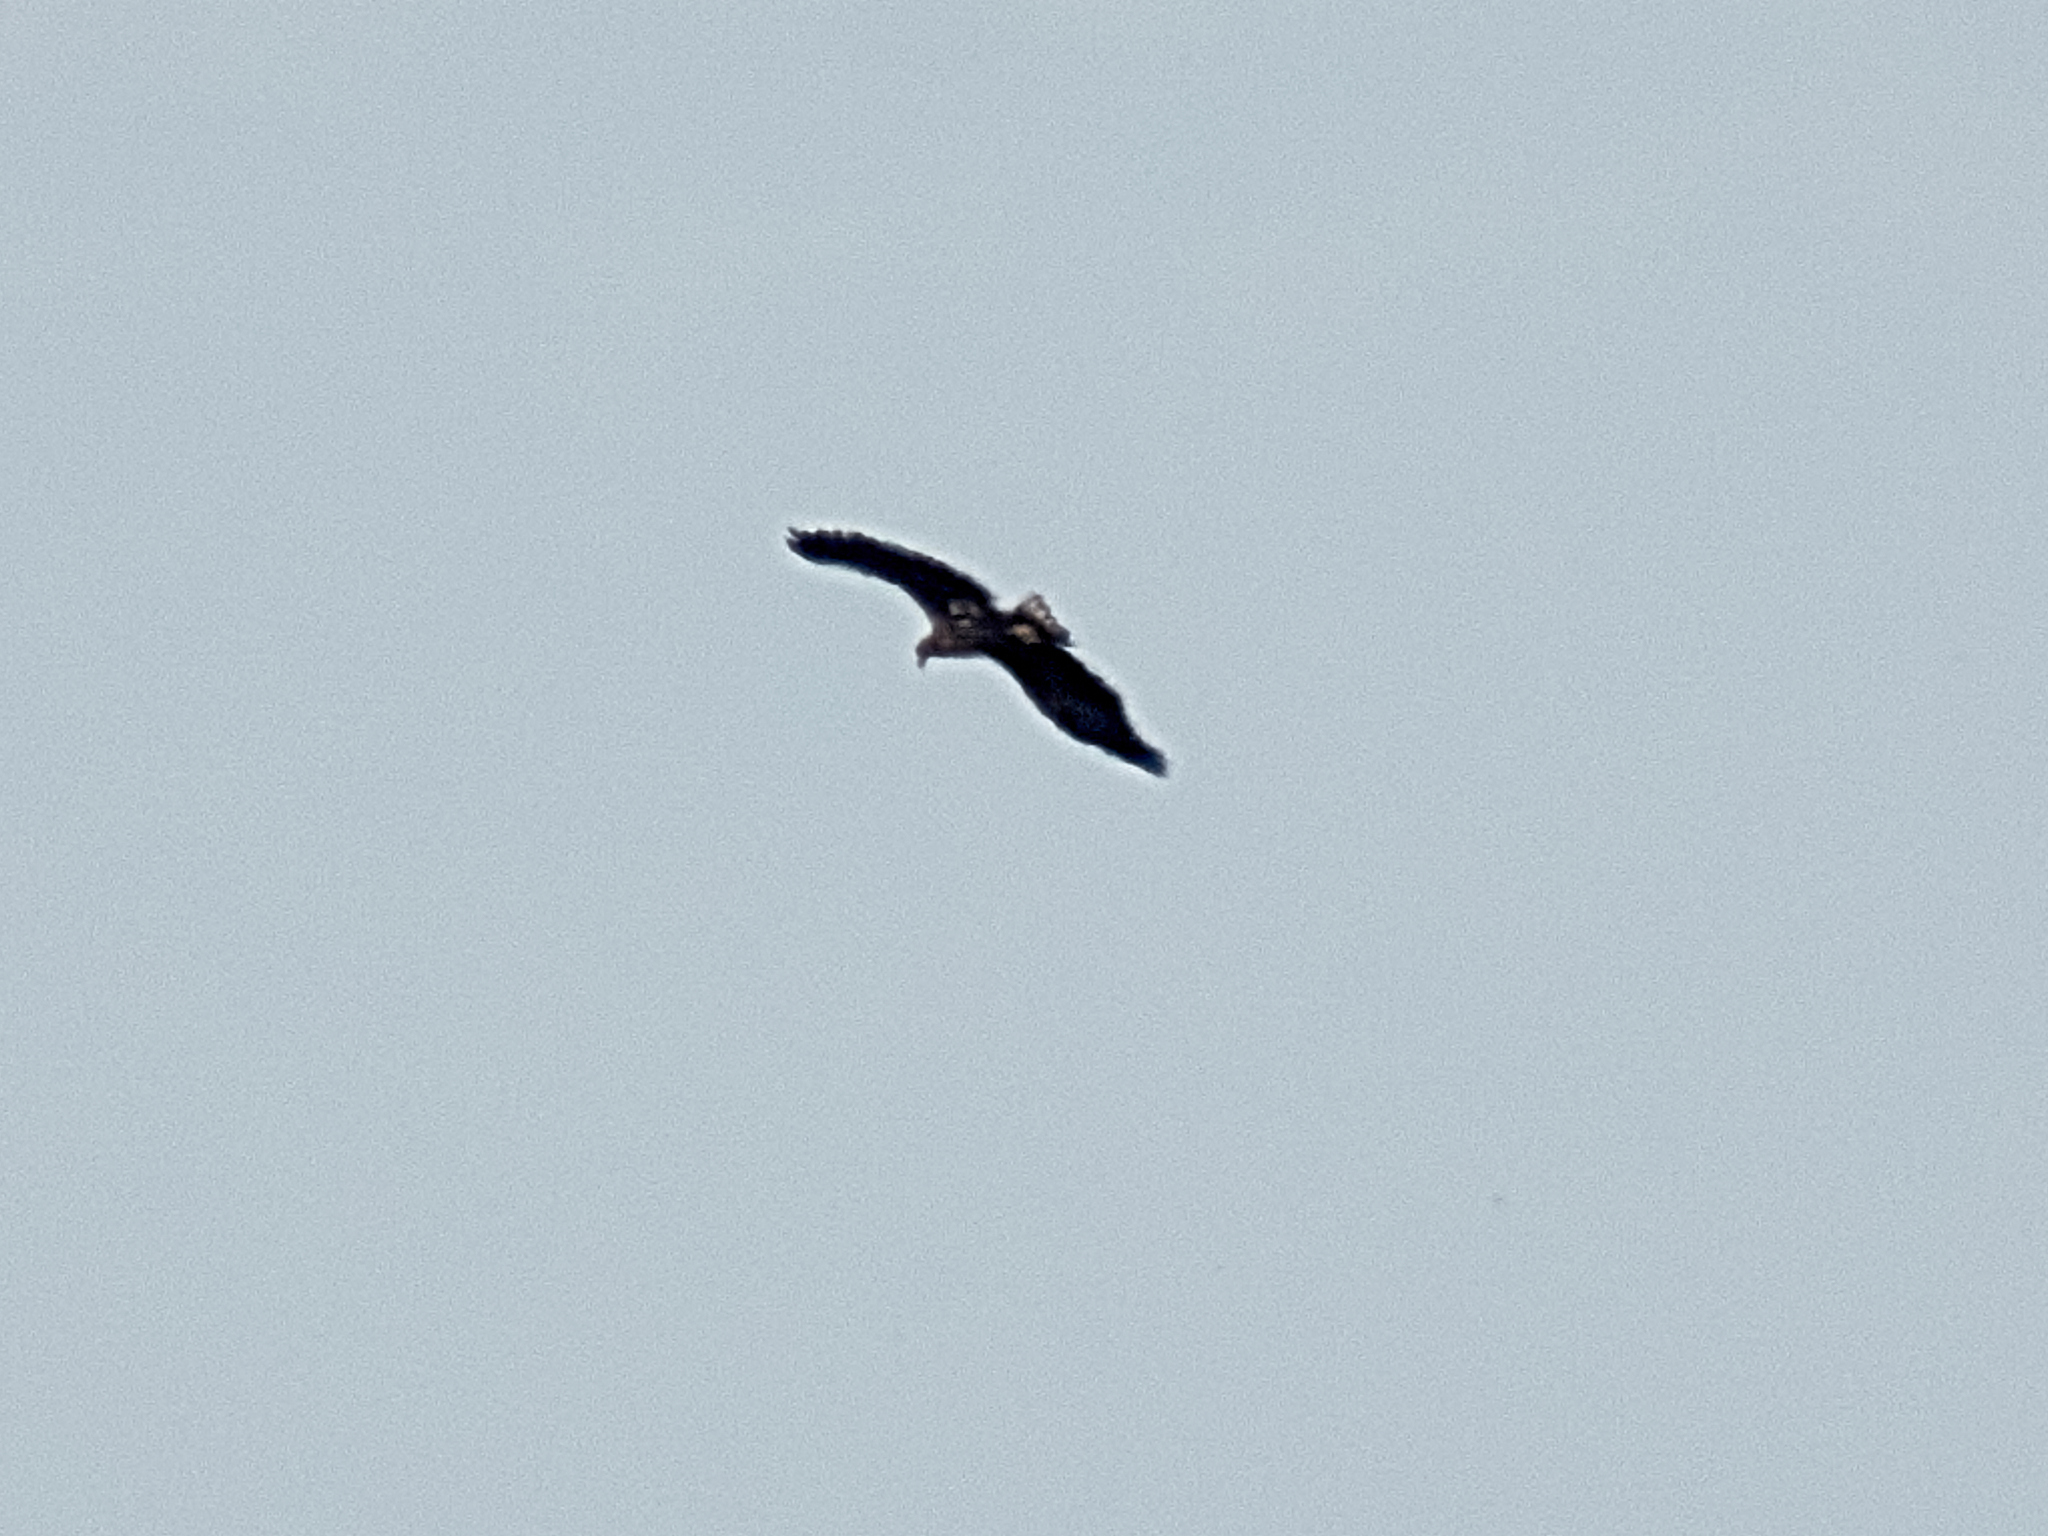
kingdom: Animalia
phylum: Chordata
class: Aves
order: Accipitriformes
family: Accipitridae
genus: Haliaeetus
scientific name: Haliaeetus albicilla
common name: White-tailed eagle
